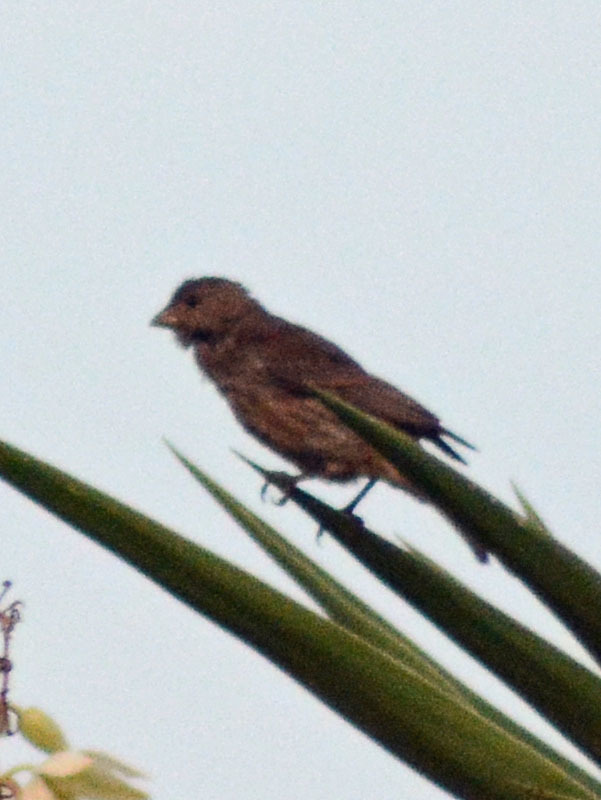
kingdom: Animalia
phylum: Chordata
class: Aves
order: Passeriformes
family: Fringillidae
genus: Haemorhous
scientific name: Haemorhous mexicanus
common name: House finch
